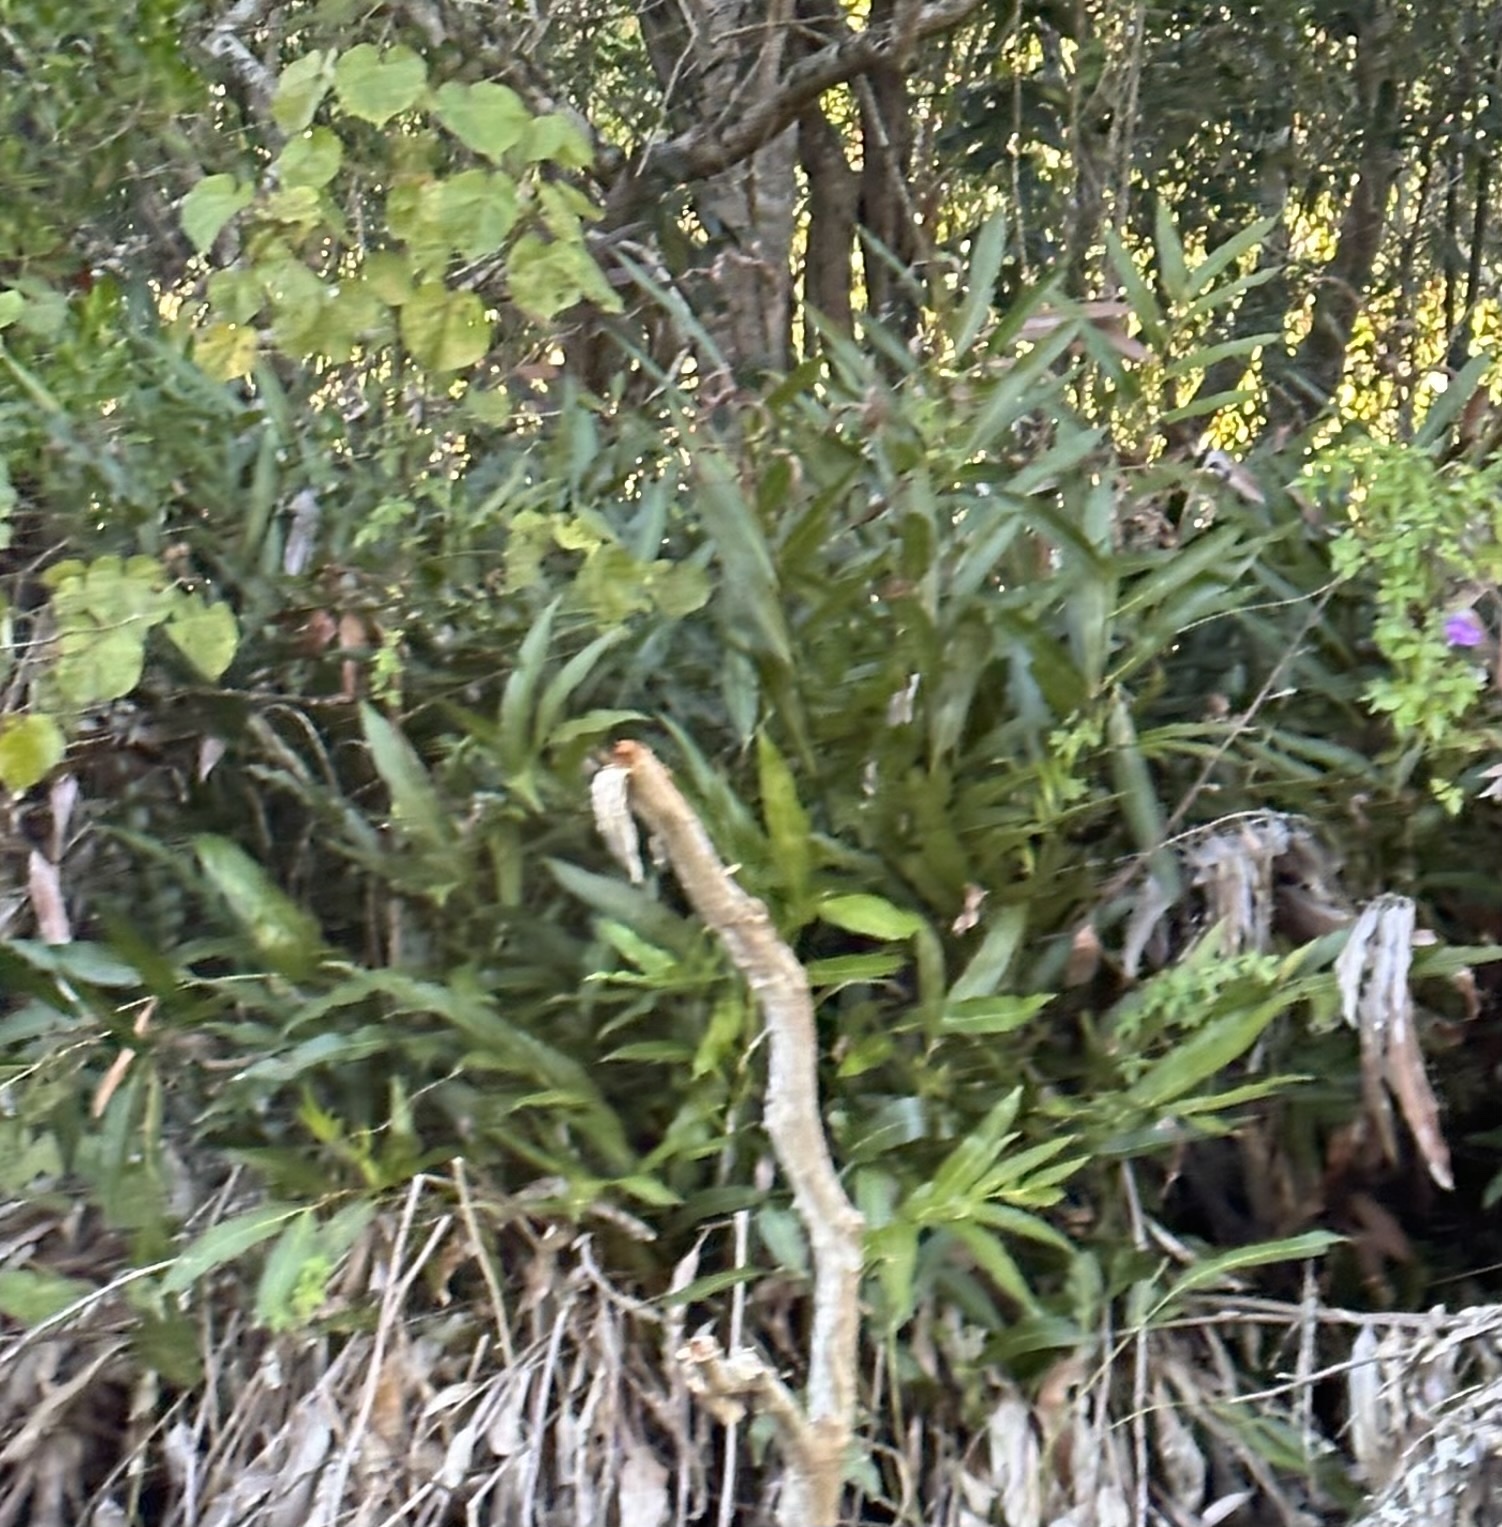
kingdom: Plantae
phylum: Tracheophyta
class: Polypodiopsida
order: Polypodiales
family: Pteridaceae
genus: Acrostichum
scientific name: Acrostichum speciosum
